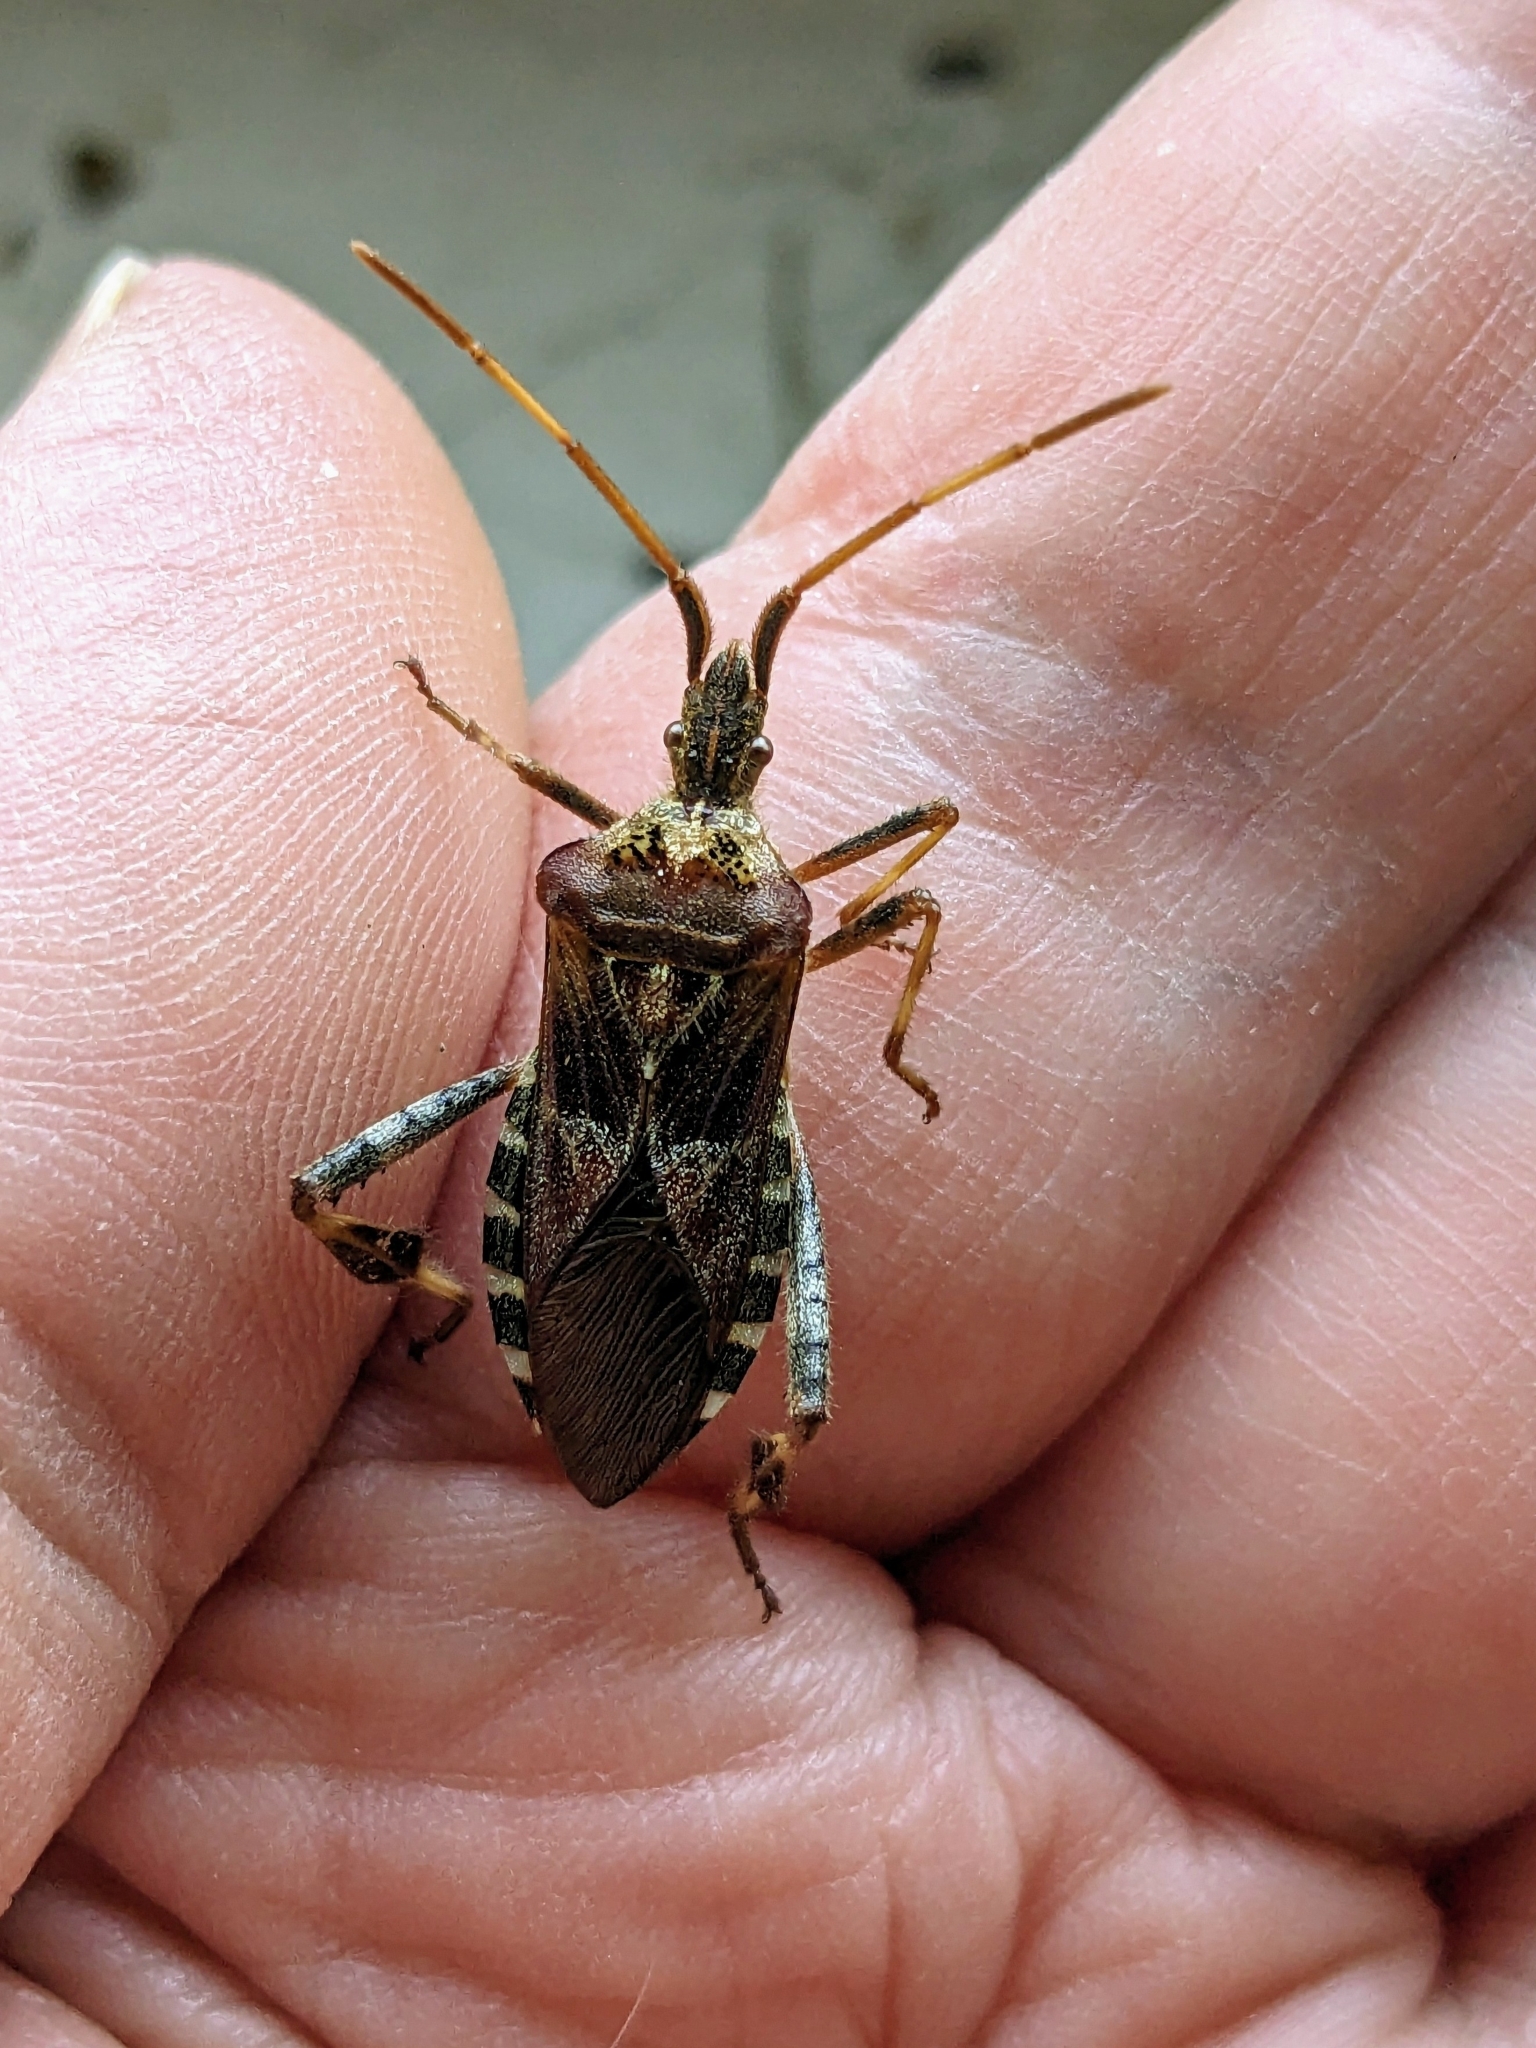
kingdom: Animalia
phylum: Arthropoda
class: Insecta
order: Hemiptera
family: Coreidae
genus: Leptoglossus
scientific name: Leptoglossus occidentalis
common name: Western conifer-seed bug
